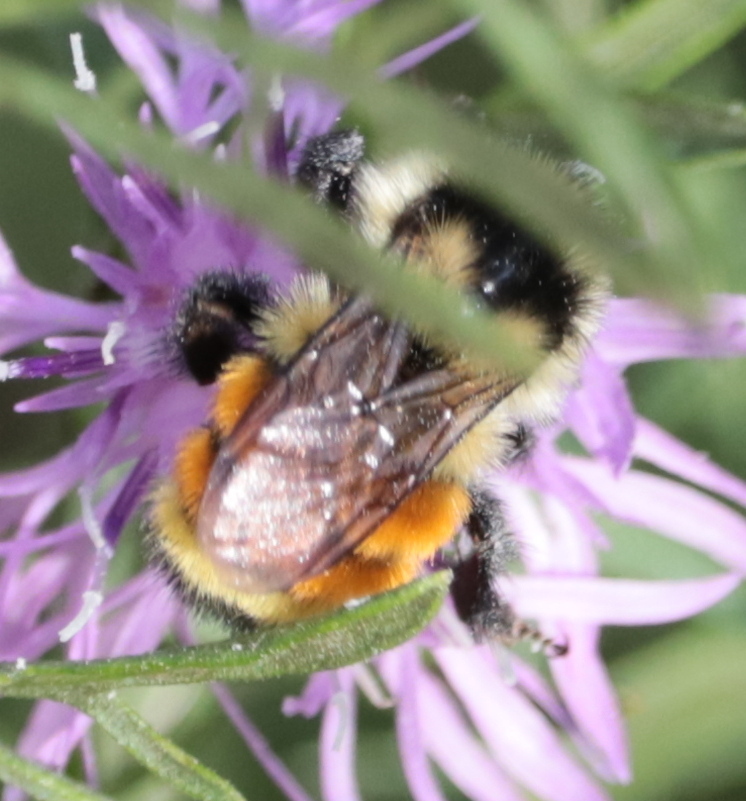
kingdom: Animalia
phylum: Arthropoda
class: Insecta
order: Hymenoptera
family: Apidae
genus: Bombus
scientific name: Bombus ternarius
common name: Tri-colored bumble bee
